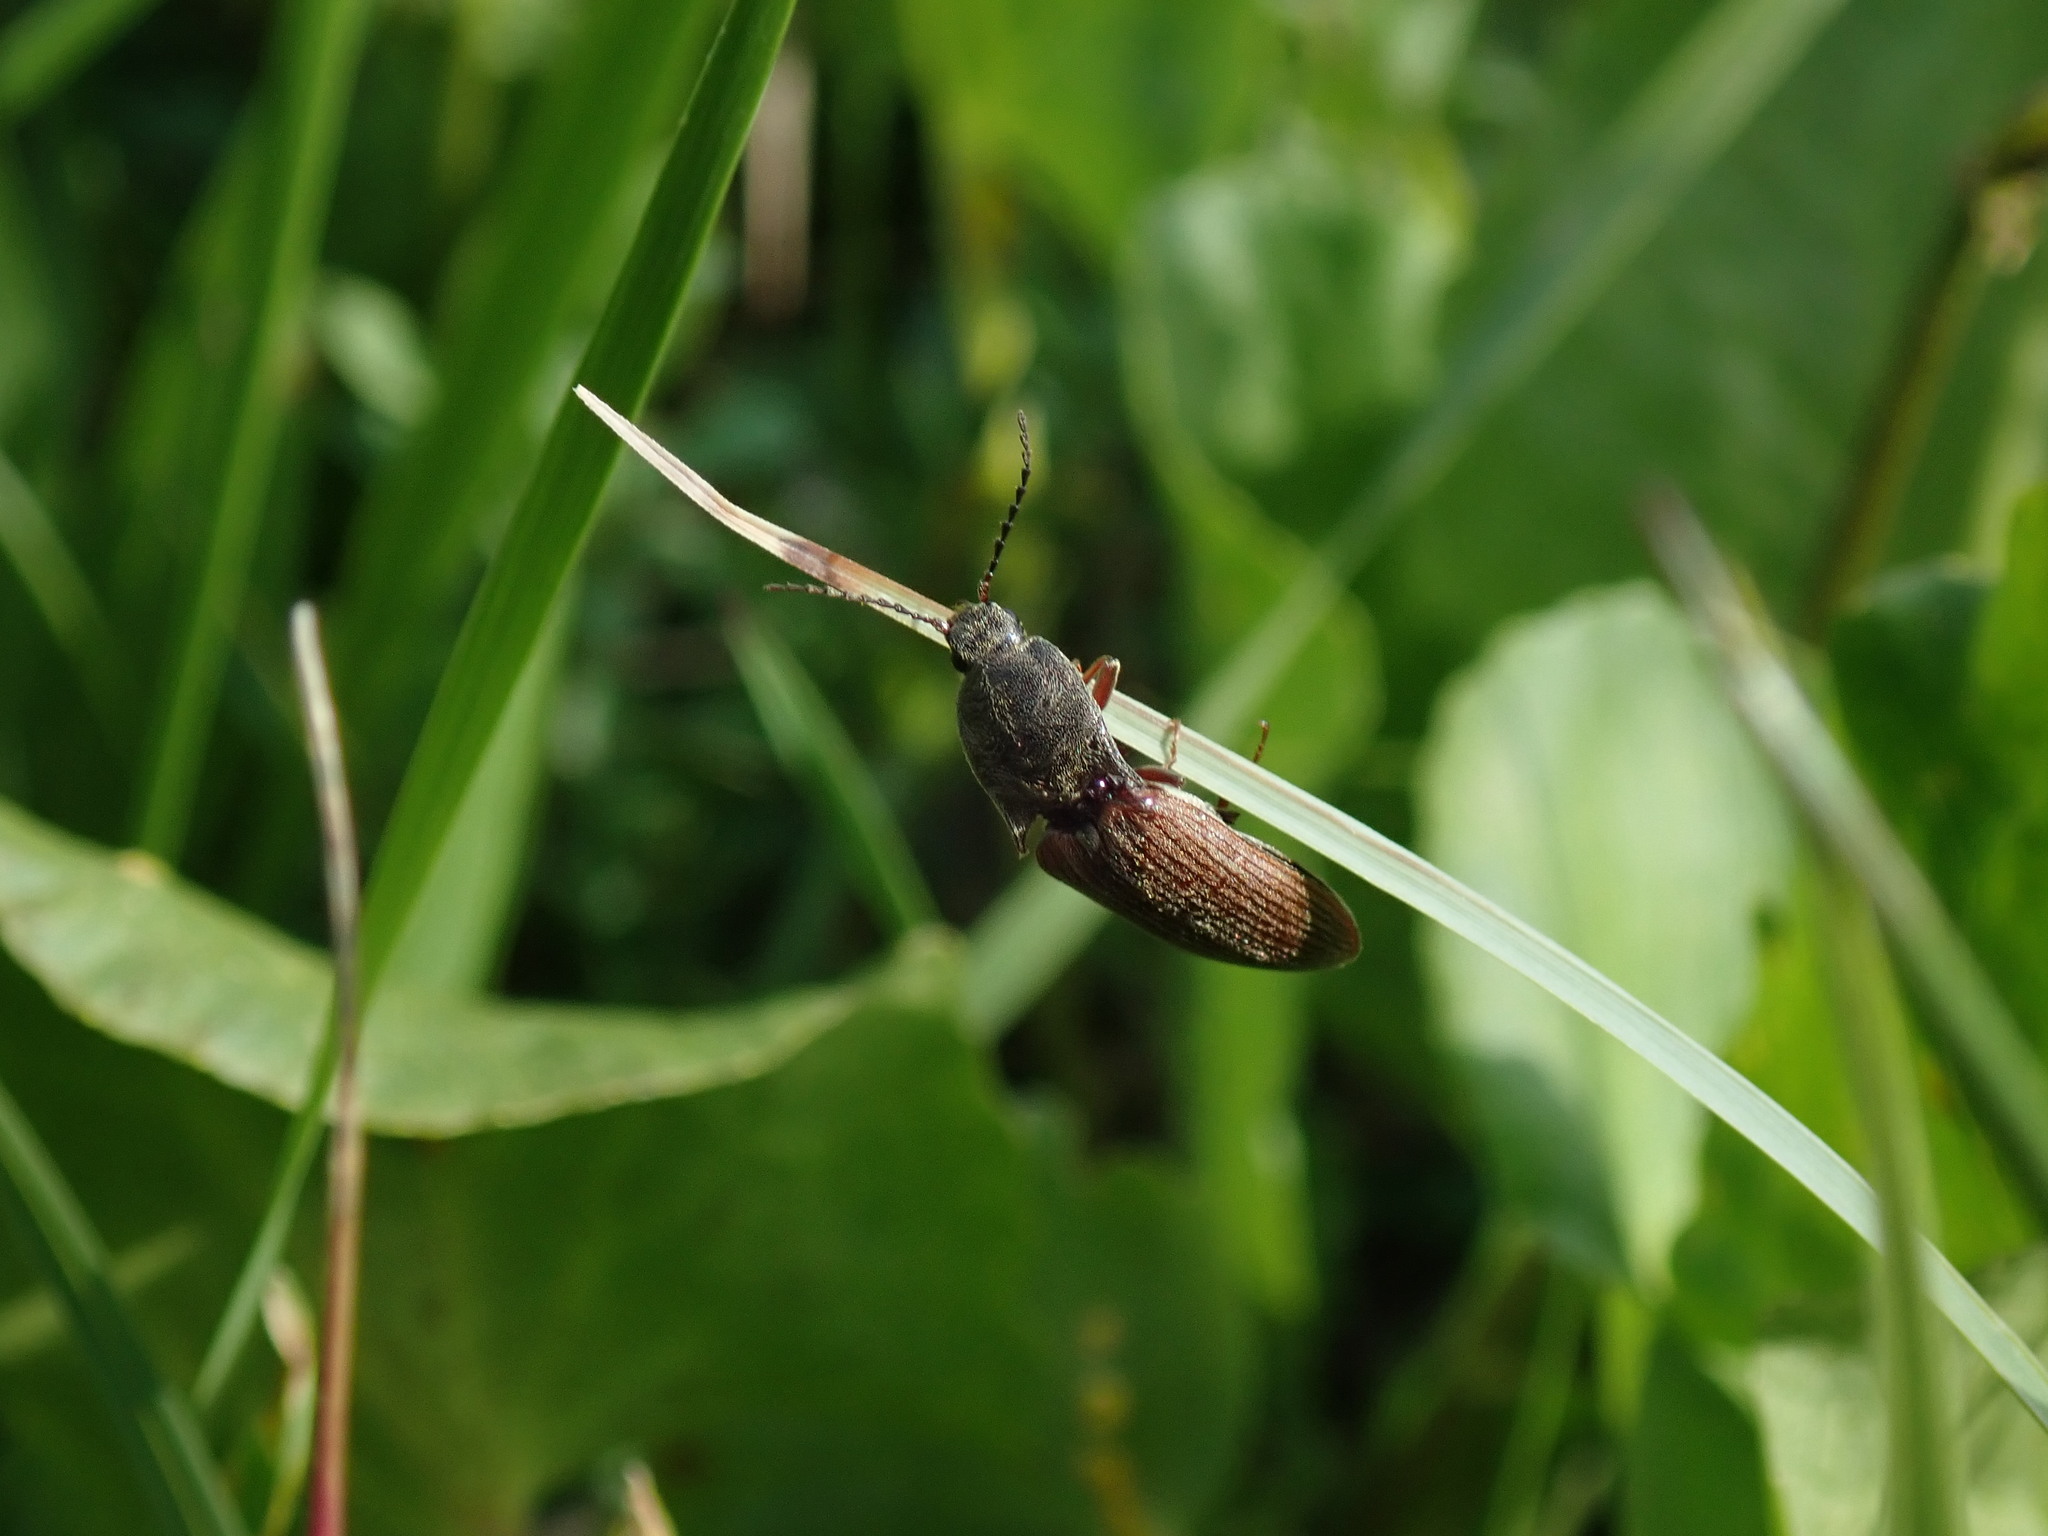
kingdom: Animalia
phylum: Arthropoda
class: Insecta
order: Coleoptera
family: Elateridae
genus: Proludius
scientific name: Proludius comes
